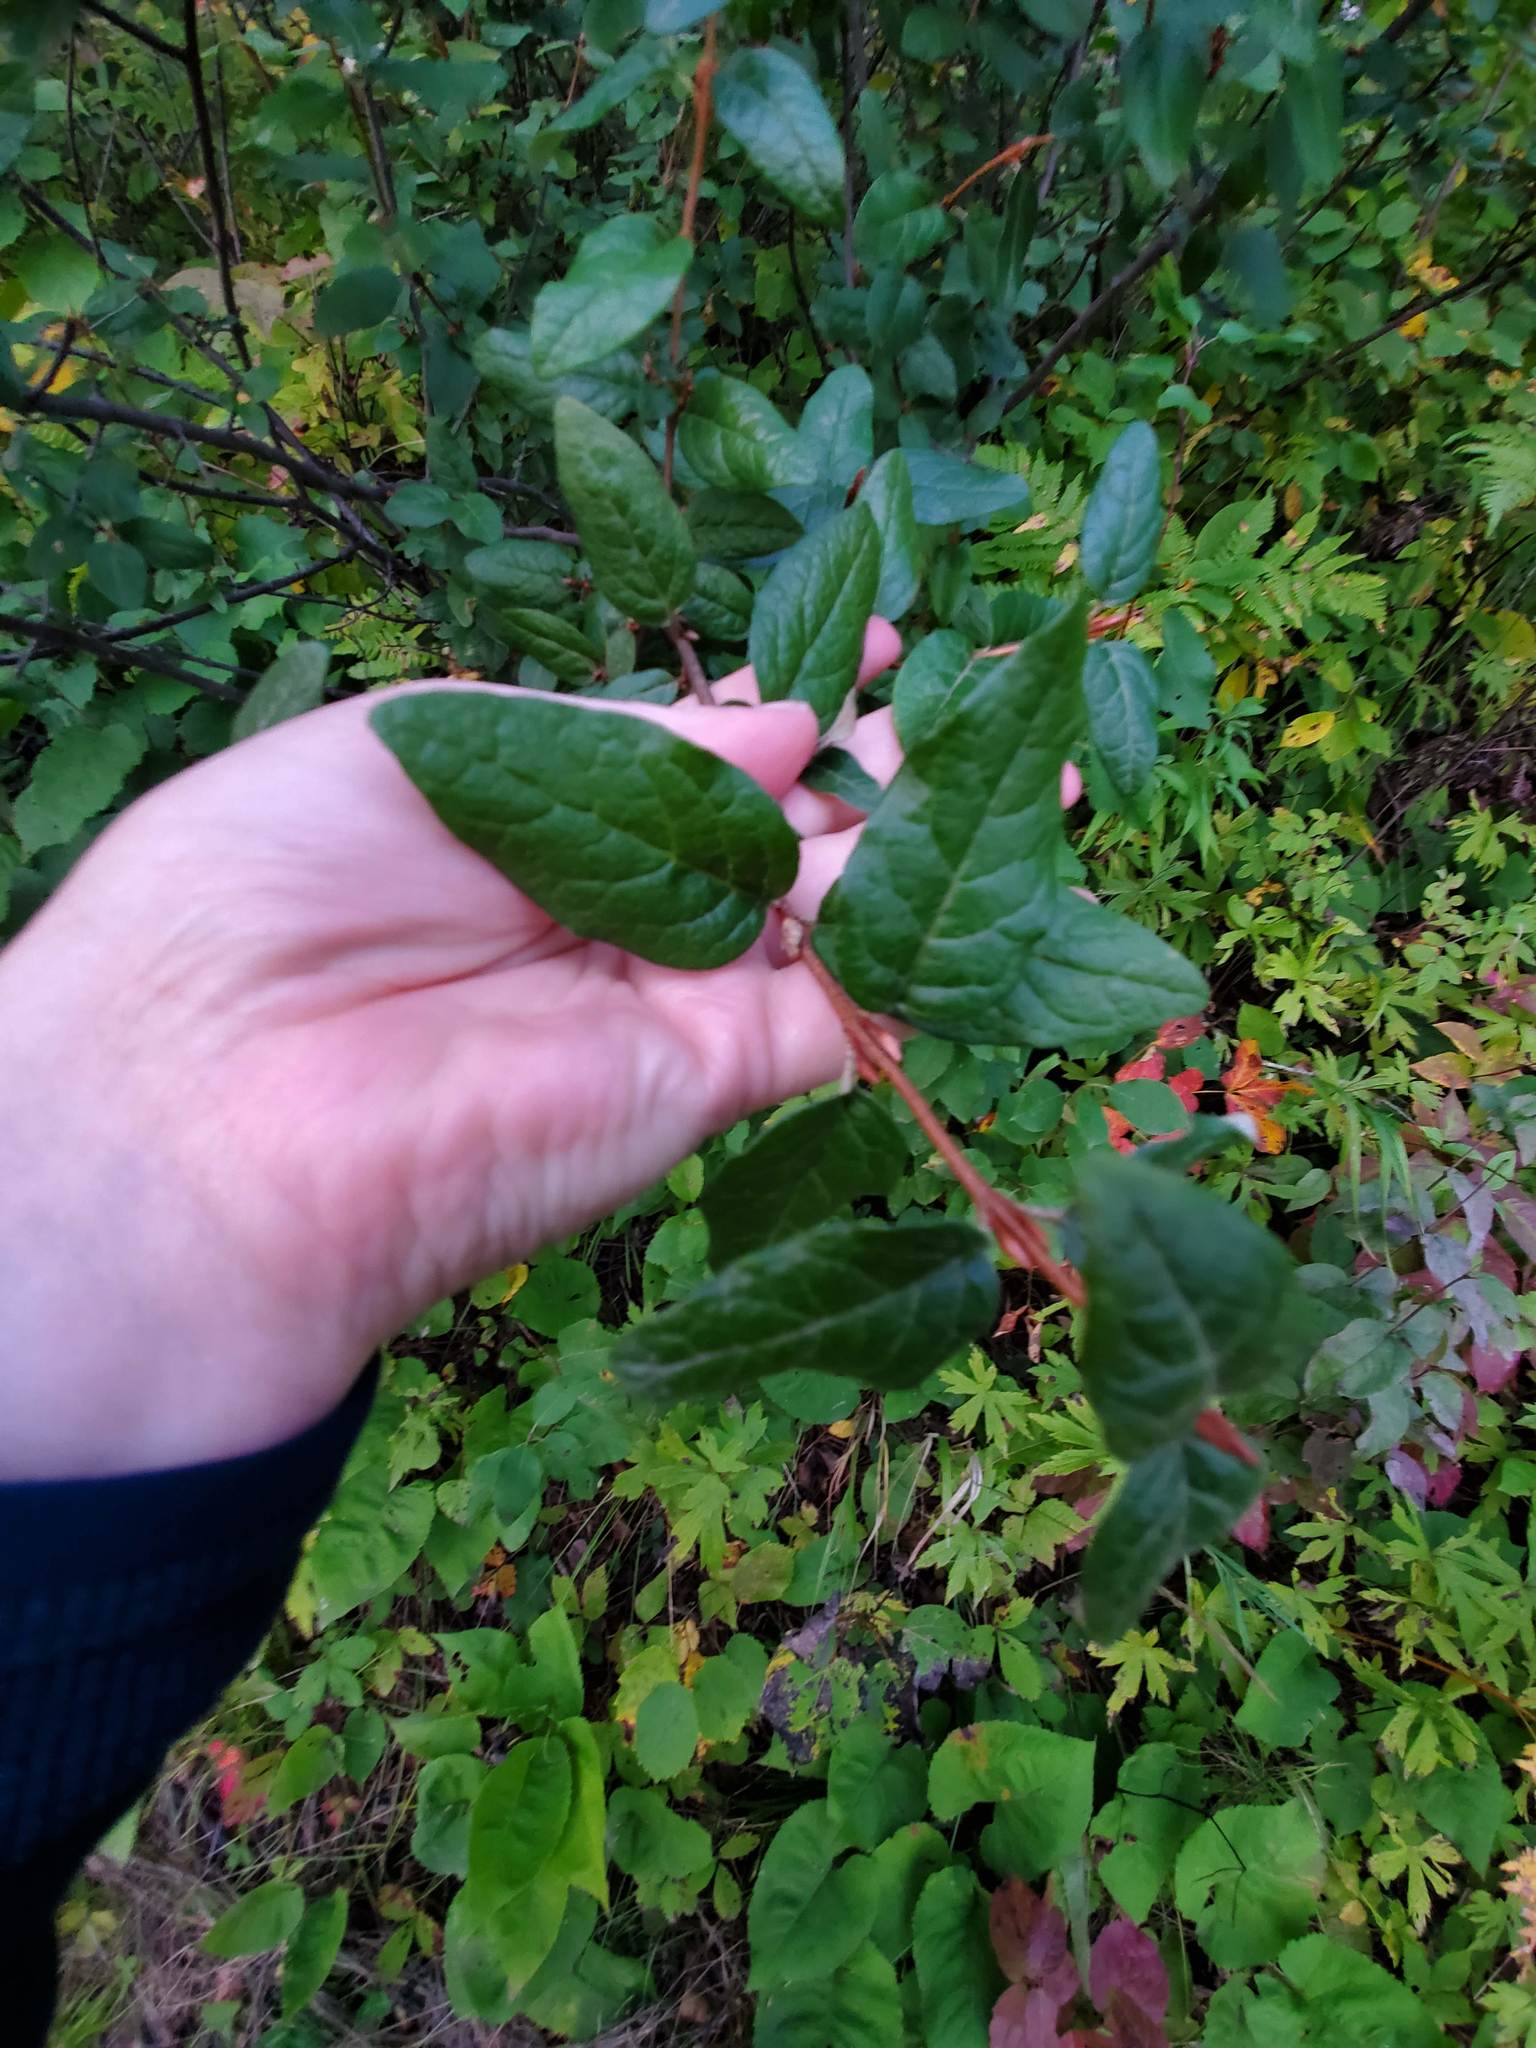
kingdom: Plantae
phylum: Tracheophyta
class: Magnoliopsida
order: Rosales
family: Elaeagnaceae
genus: Shepherdia
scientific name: Shepherdia canadensis
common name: Soapberry
